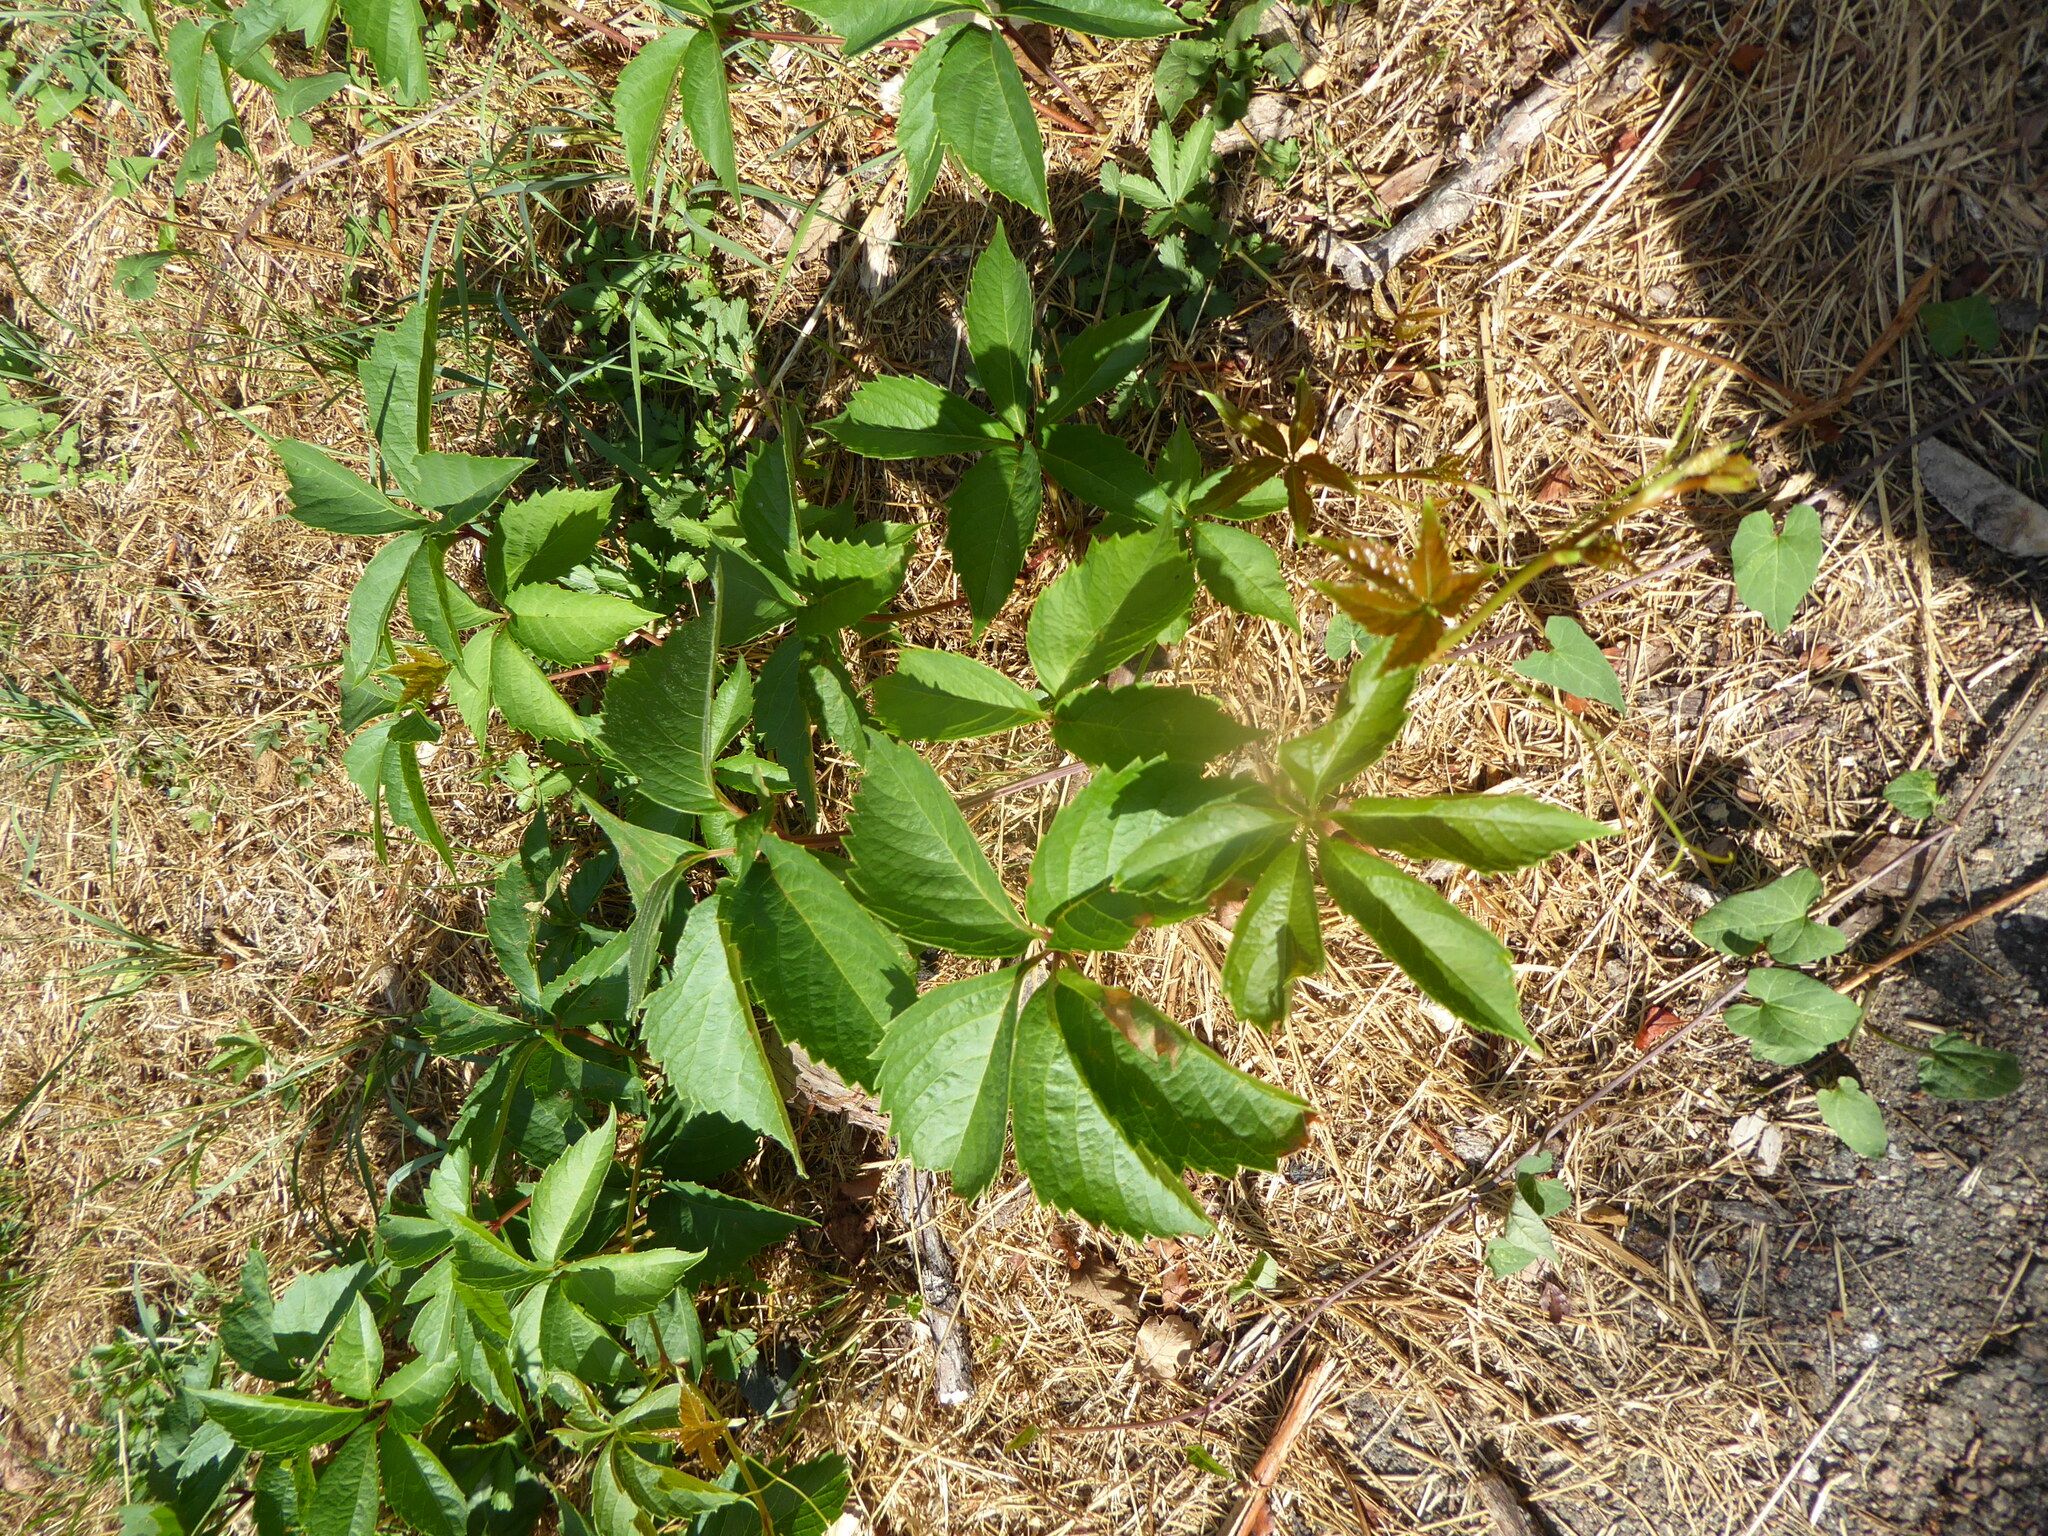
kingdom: Plantae
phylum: Tracheophyta
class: Magnoliopsida
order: Vitales
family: Vitaceae
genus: Parthenocissus
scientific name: Parthenocissus
